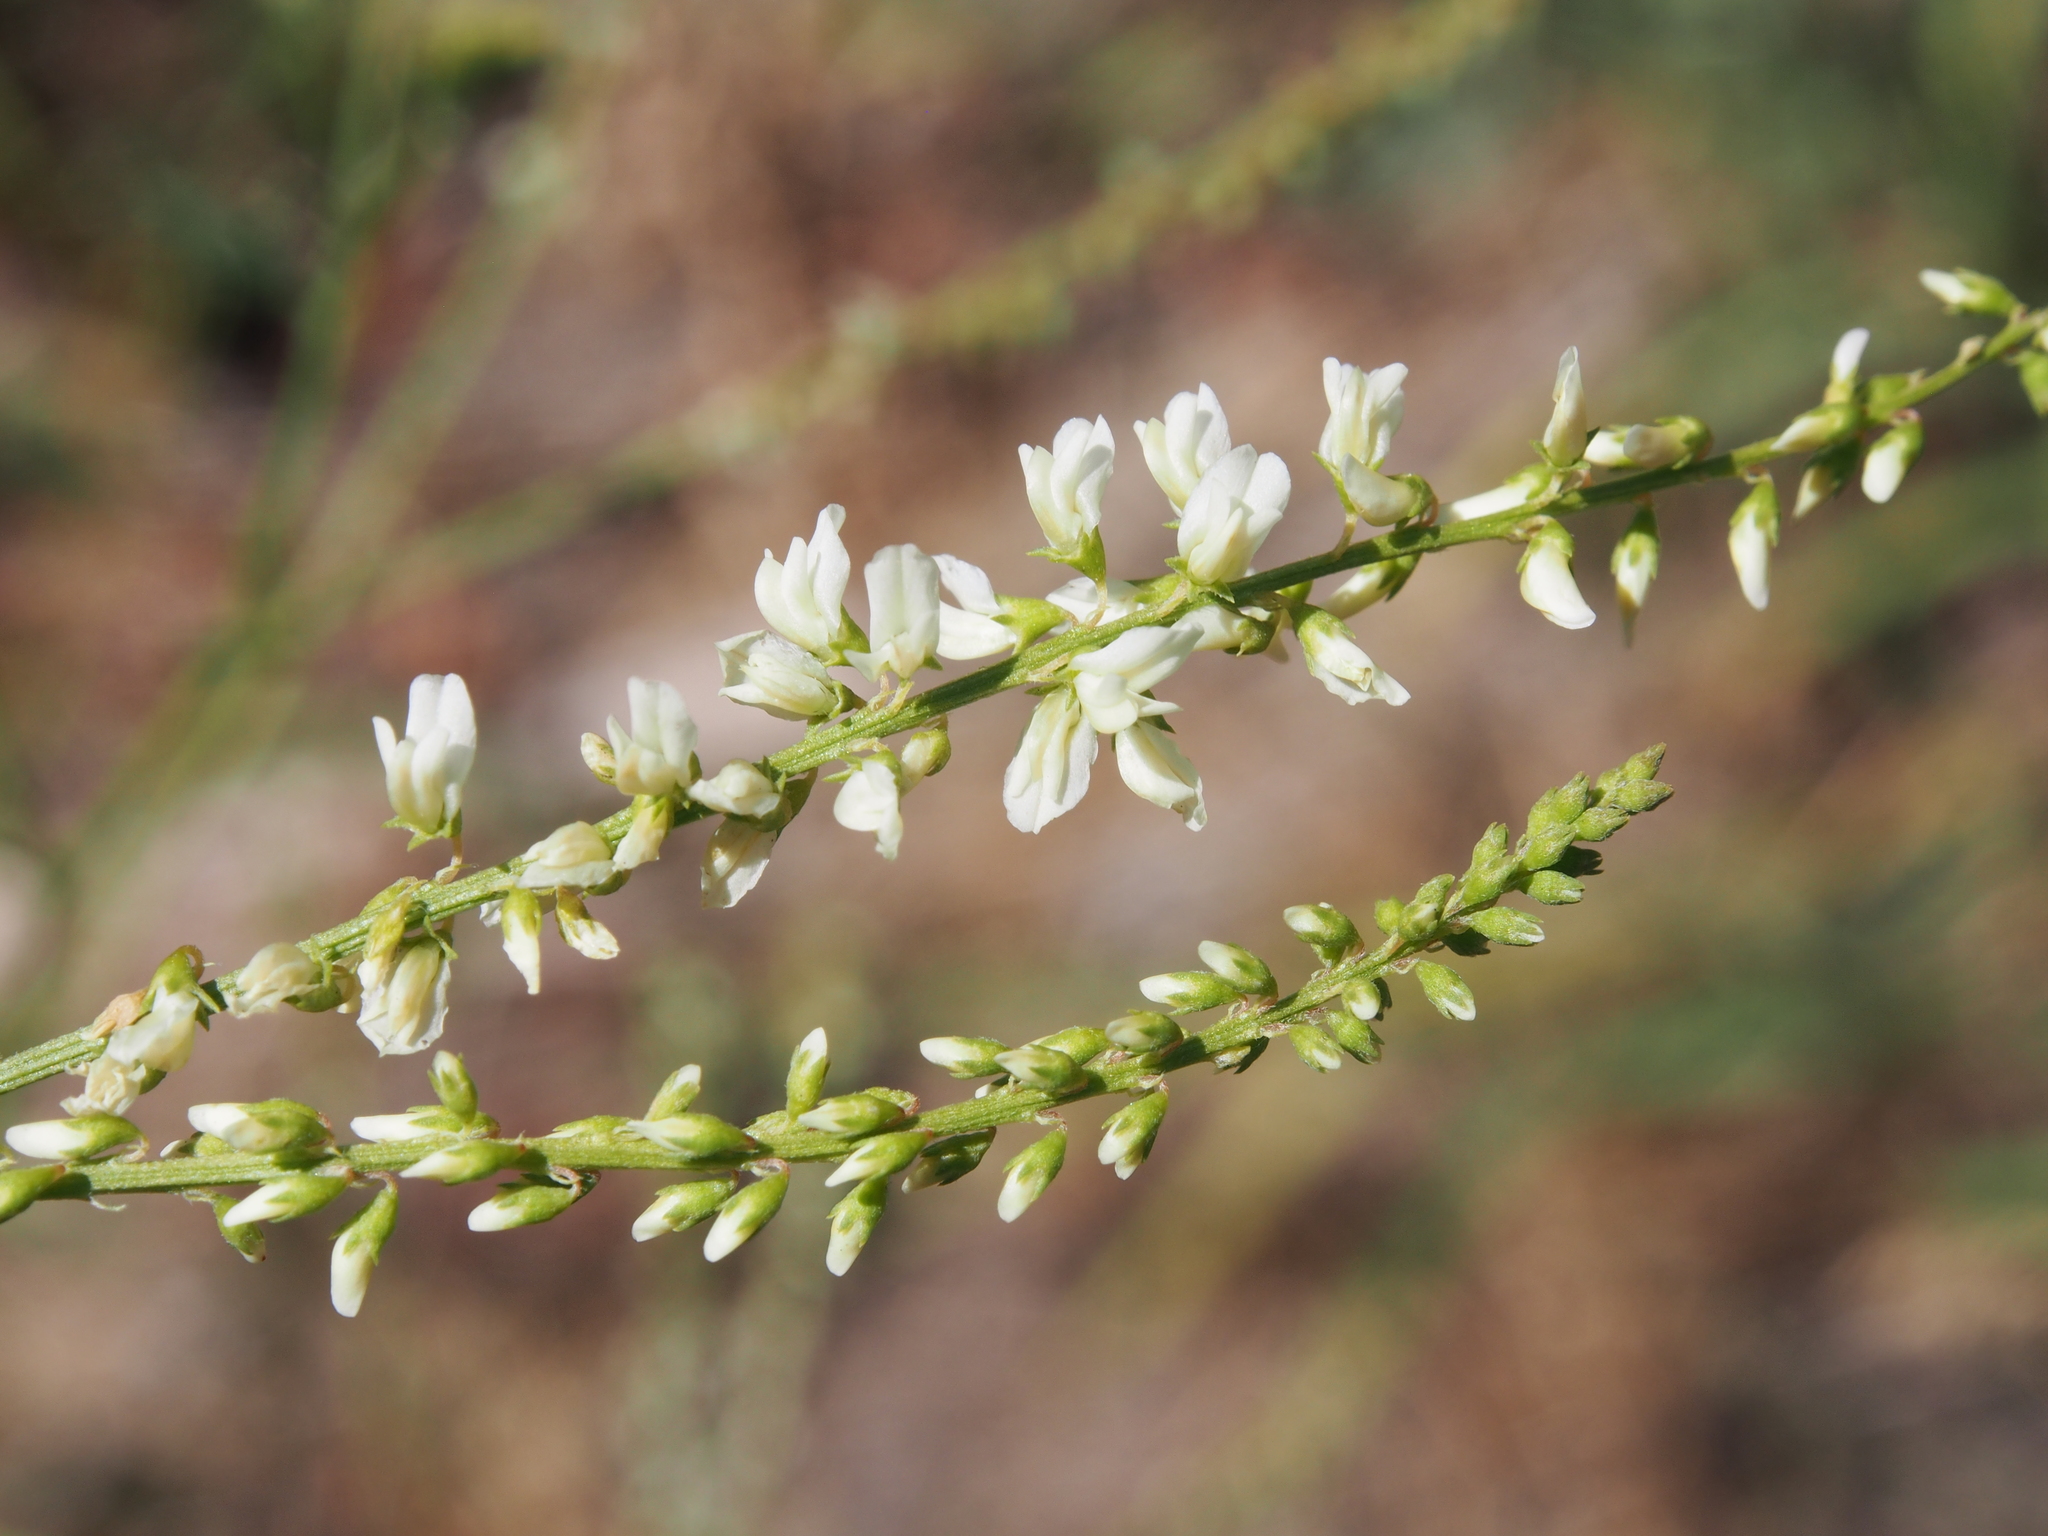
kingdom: Plantae
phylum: Tracheophyta
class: Magnoliopsida
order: Fabales
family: Fabaceae
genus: Melilotus
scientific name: Melilotus albus
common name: White melilot
